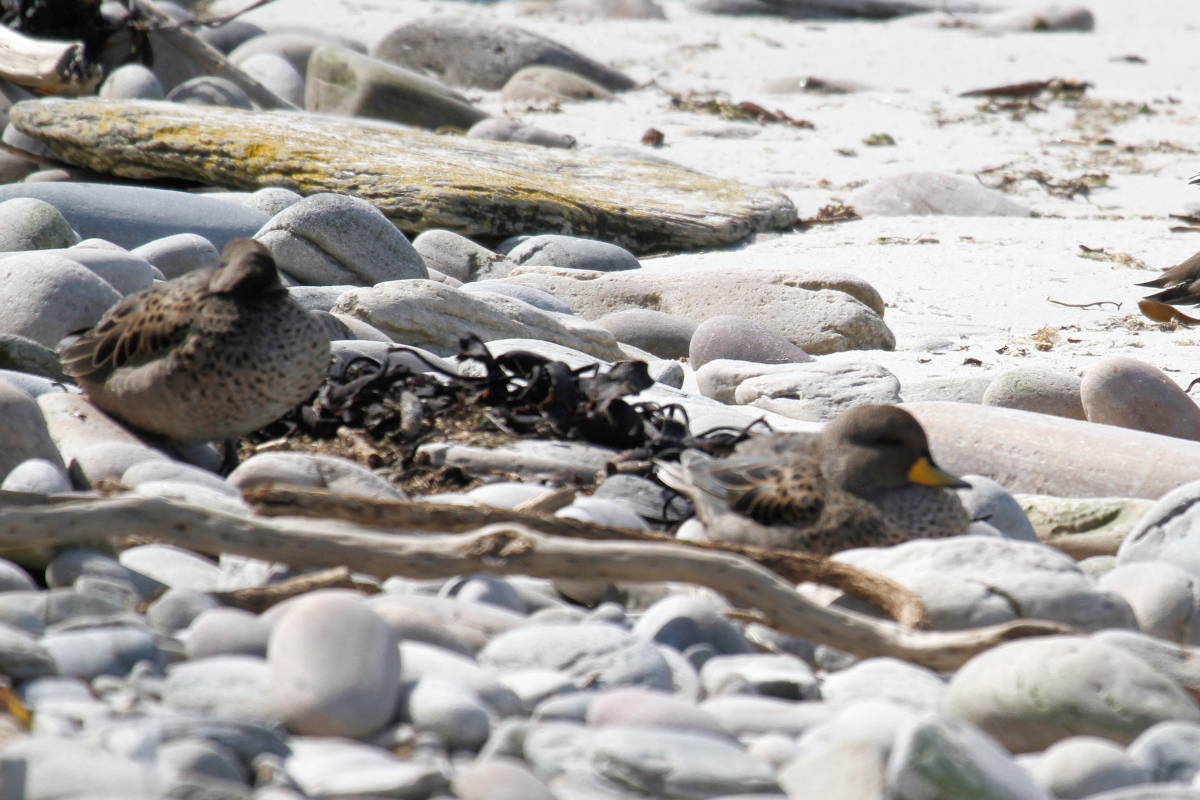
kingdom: Animalia
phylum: Chordata
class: Aves
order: Anseriformes
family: Anatidae
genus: Anas
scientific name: Anas flavirostris
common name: Yellow-billed teal
